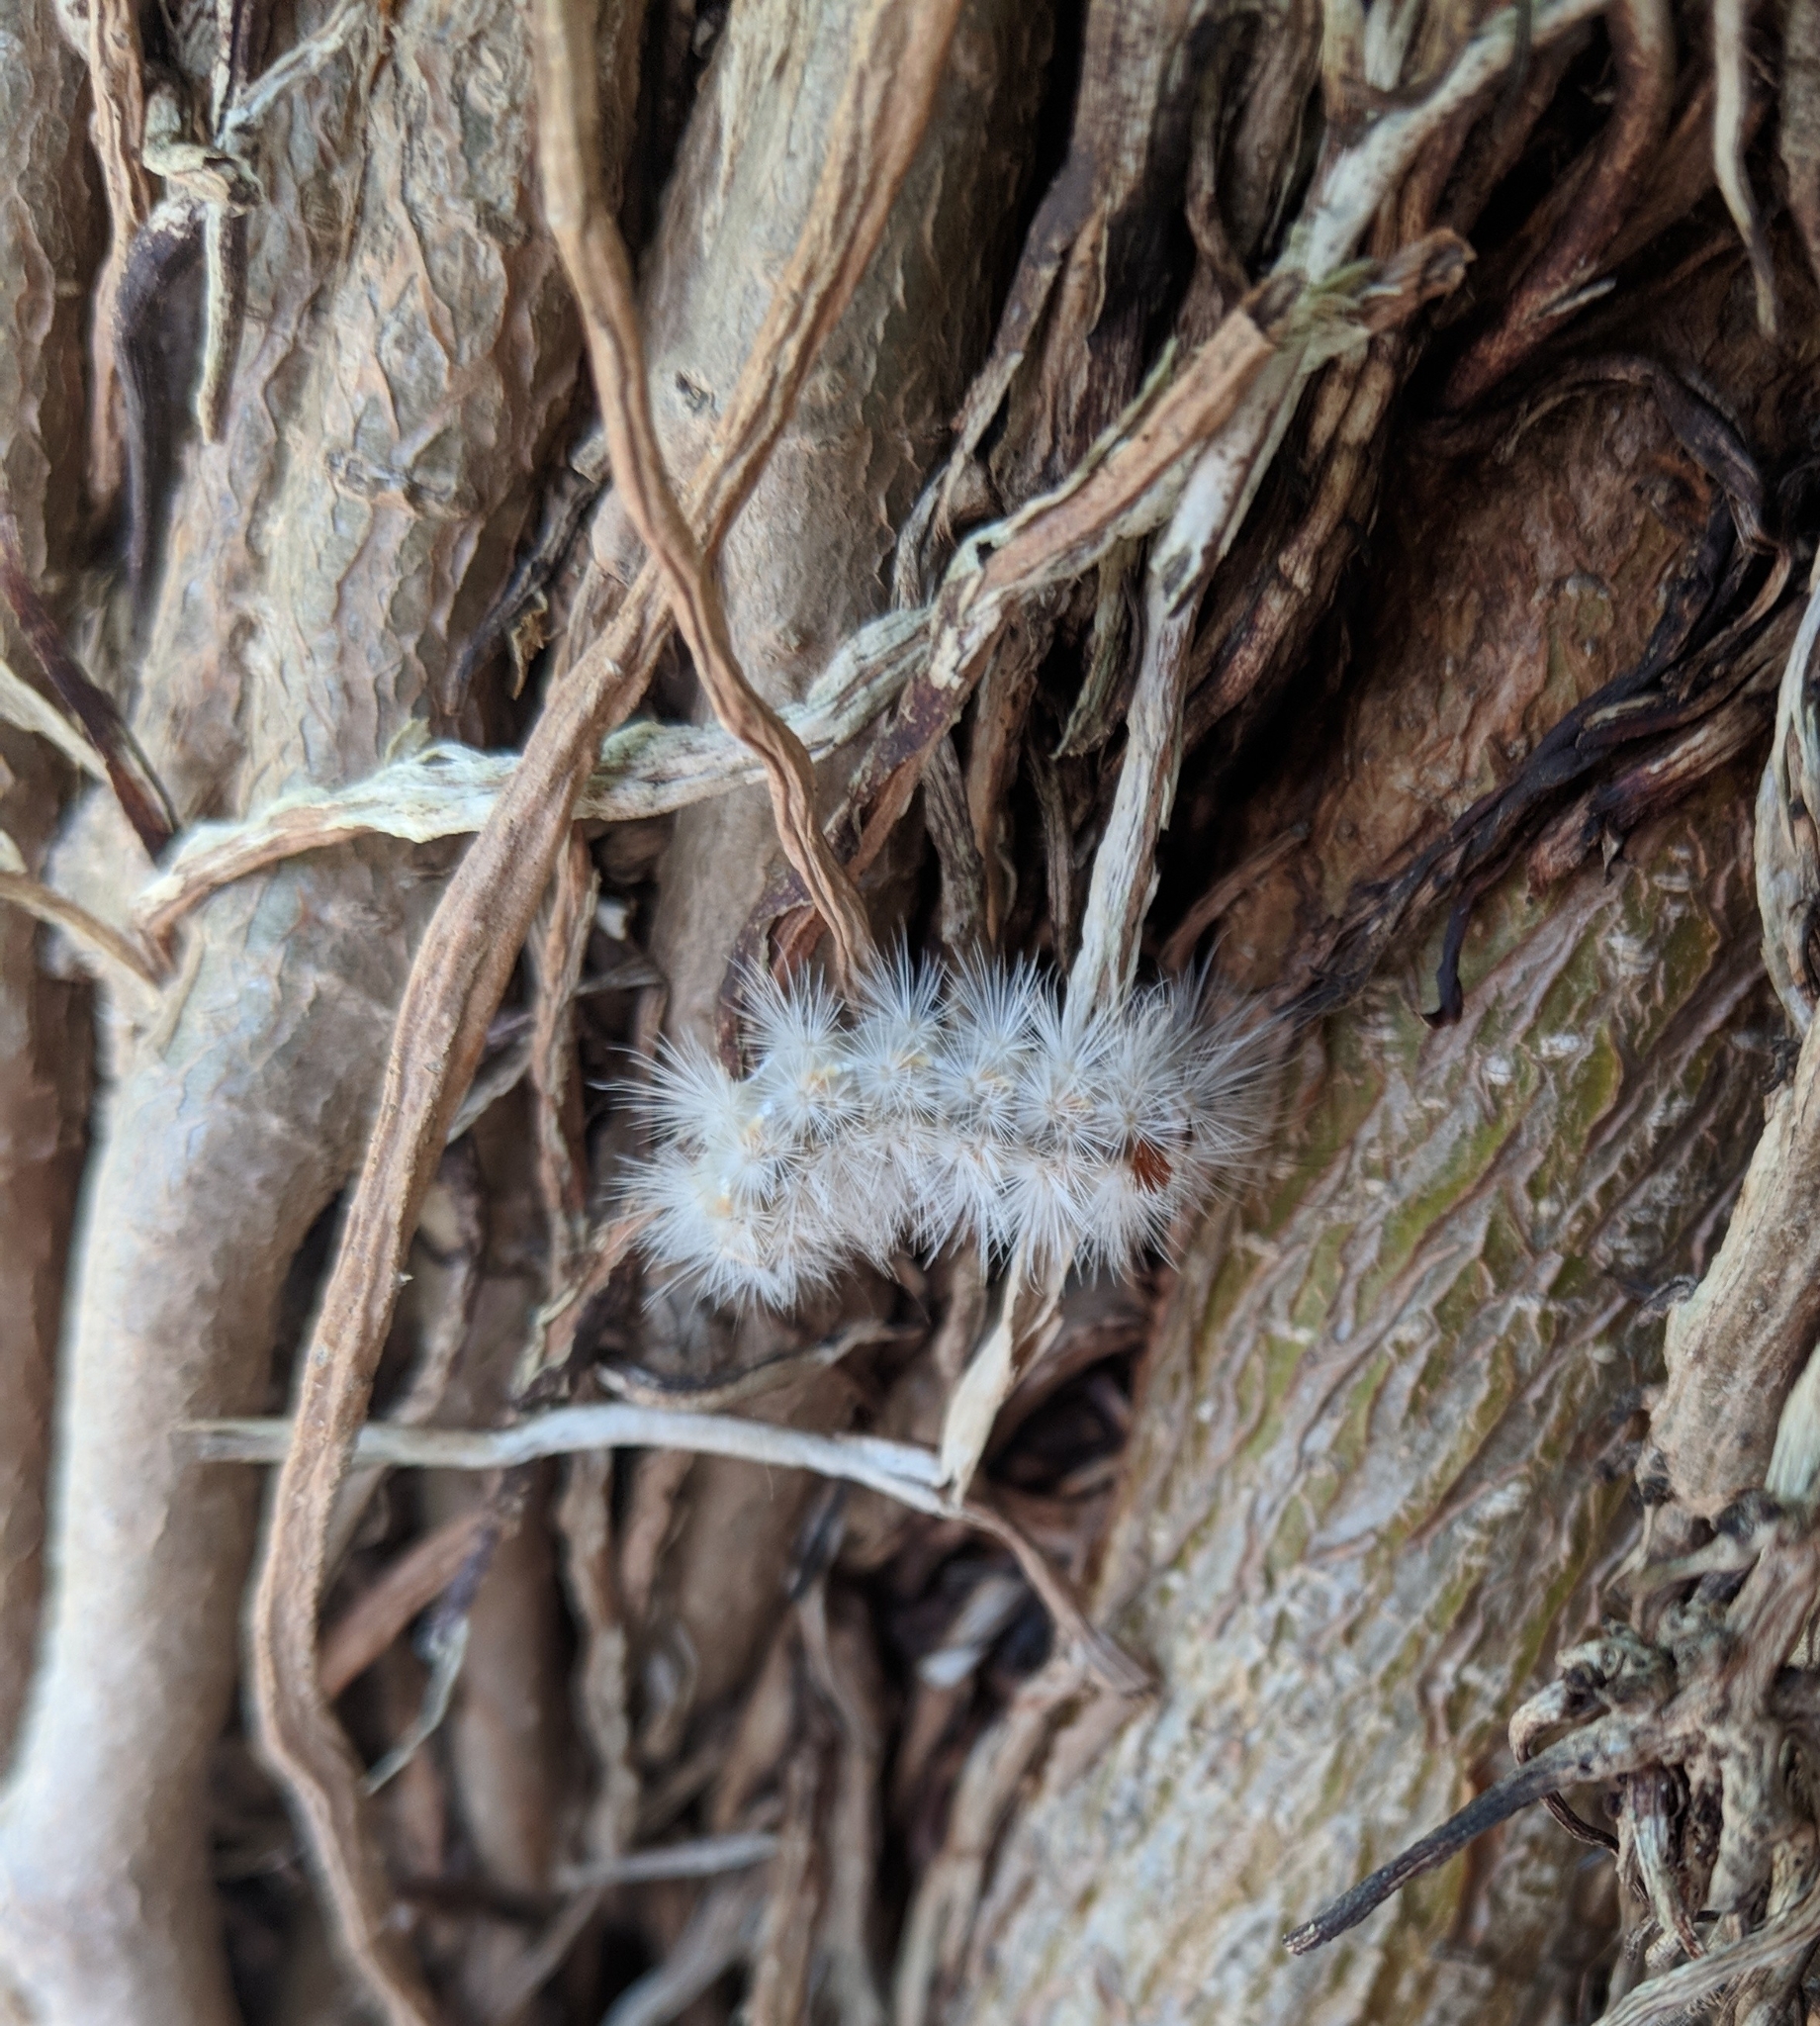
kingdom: Animalia
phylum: Arthropoda
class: Insecta
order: Lepidoptera
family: Erebidae
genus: Lymire
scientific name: Lymire edwardsii
